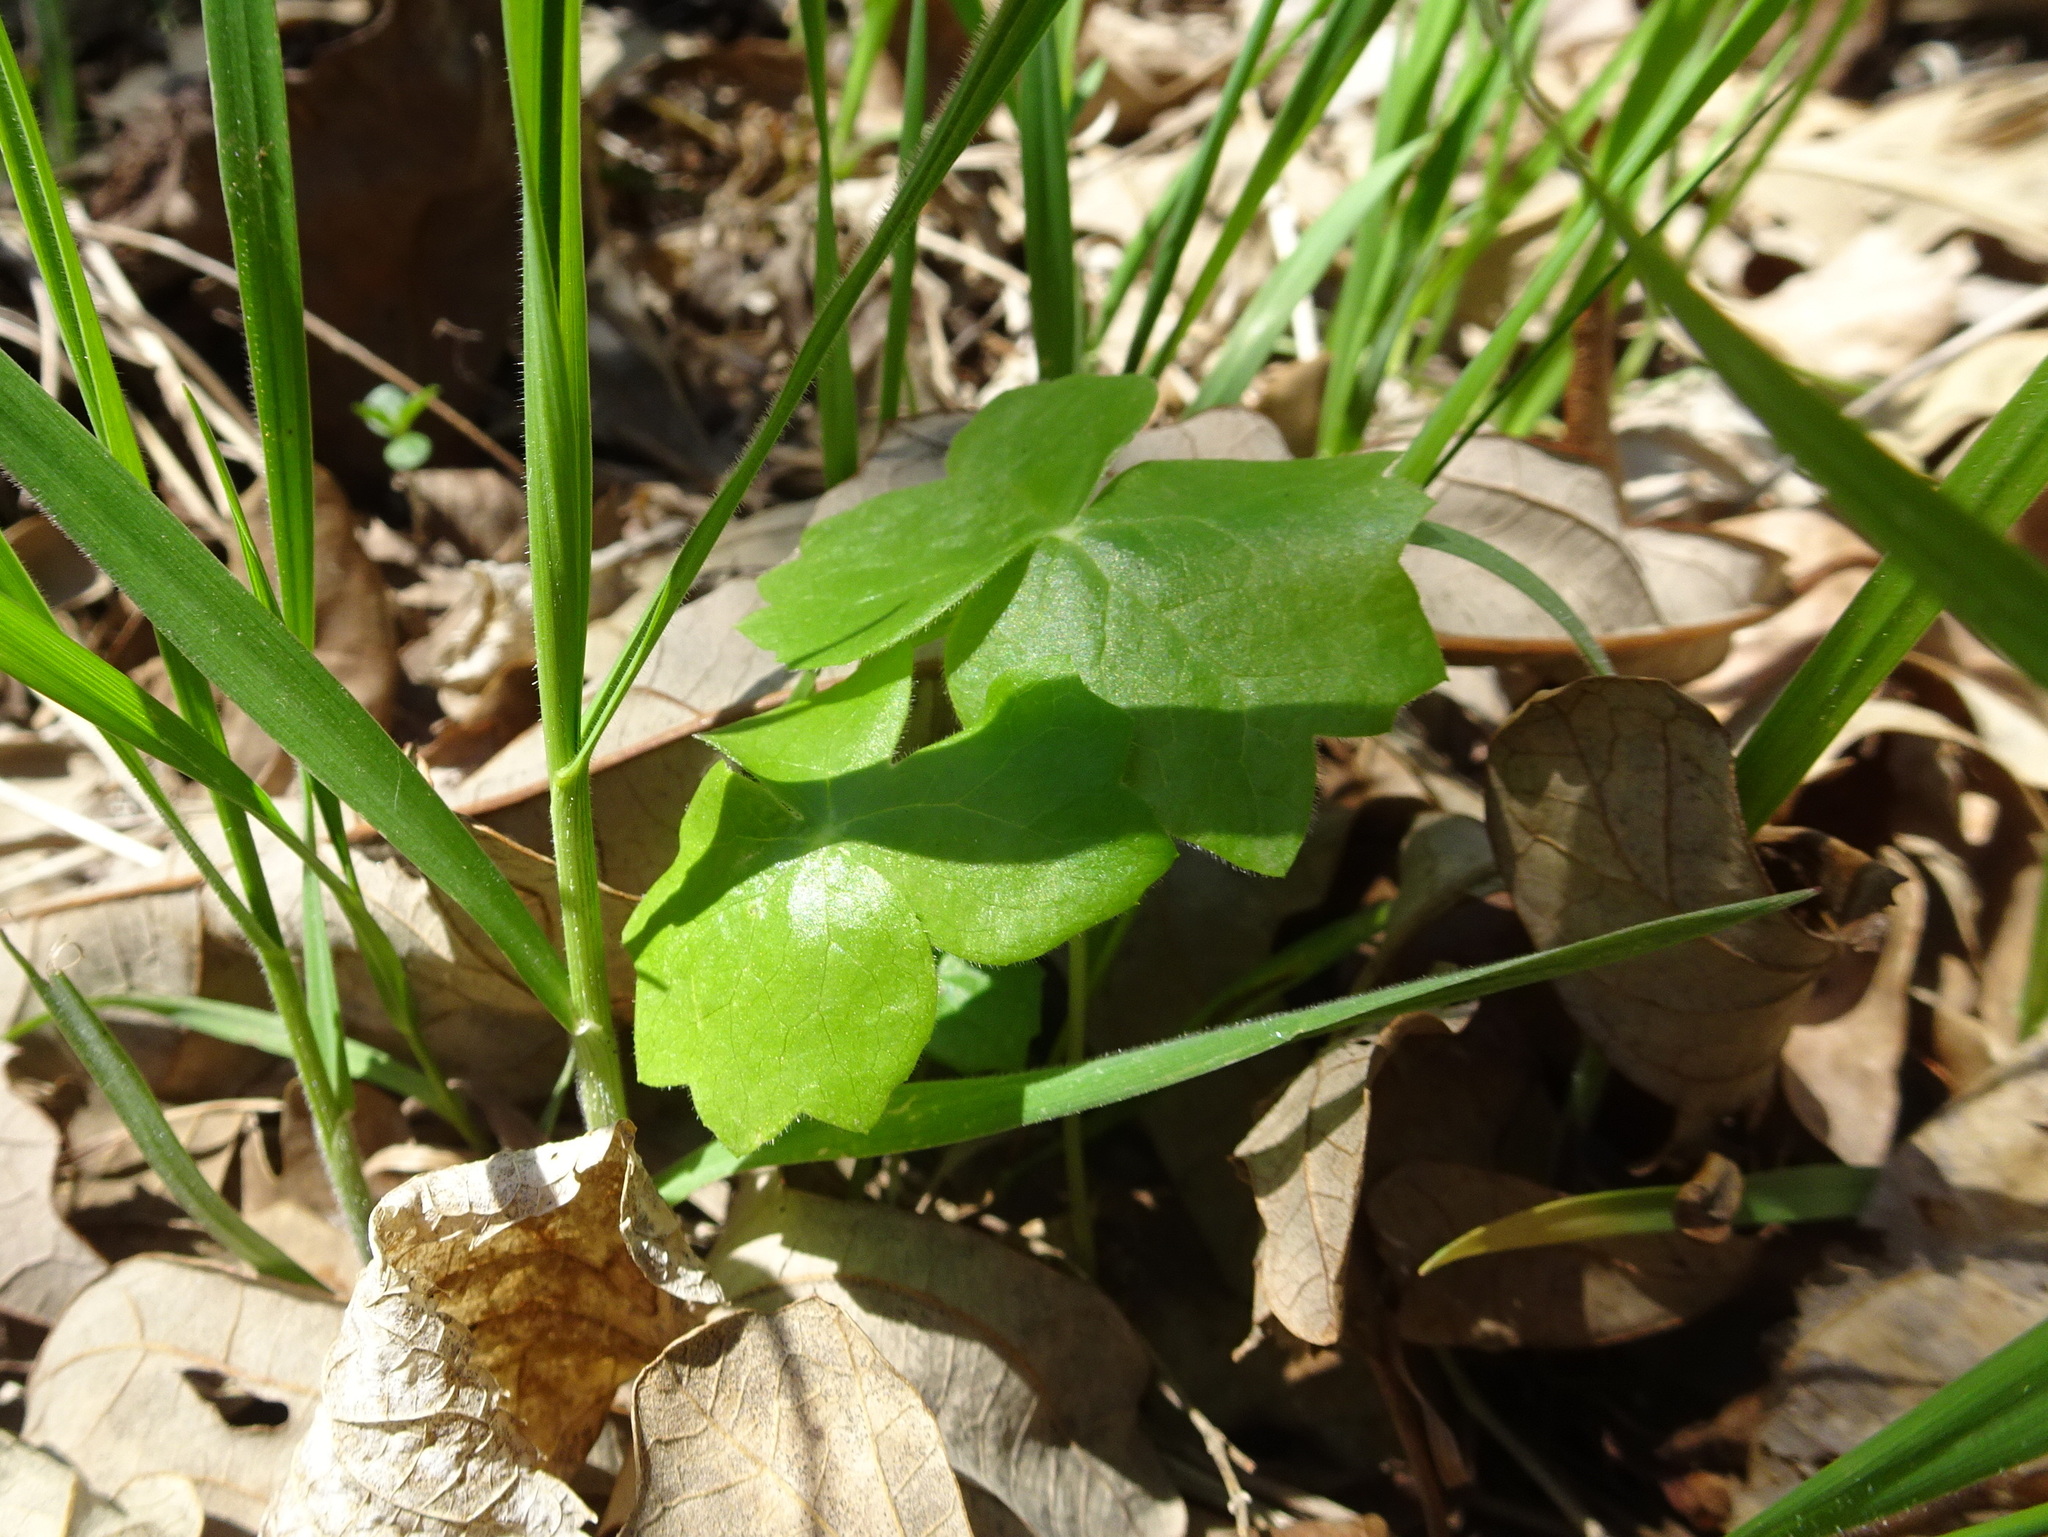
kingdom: Plantae
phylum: Tracheophyta
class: Magnoliopsida
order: Ranunculales
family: Berberidaceae
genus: Podophyllum
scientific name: Podophyllum peltatum
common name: Wild mandrake
